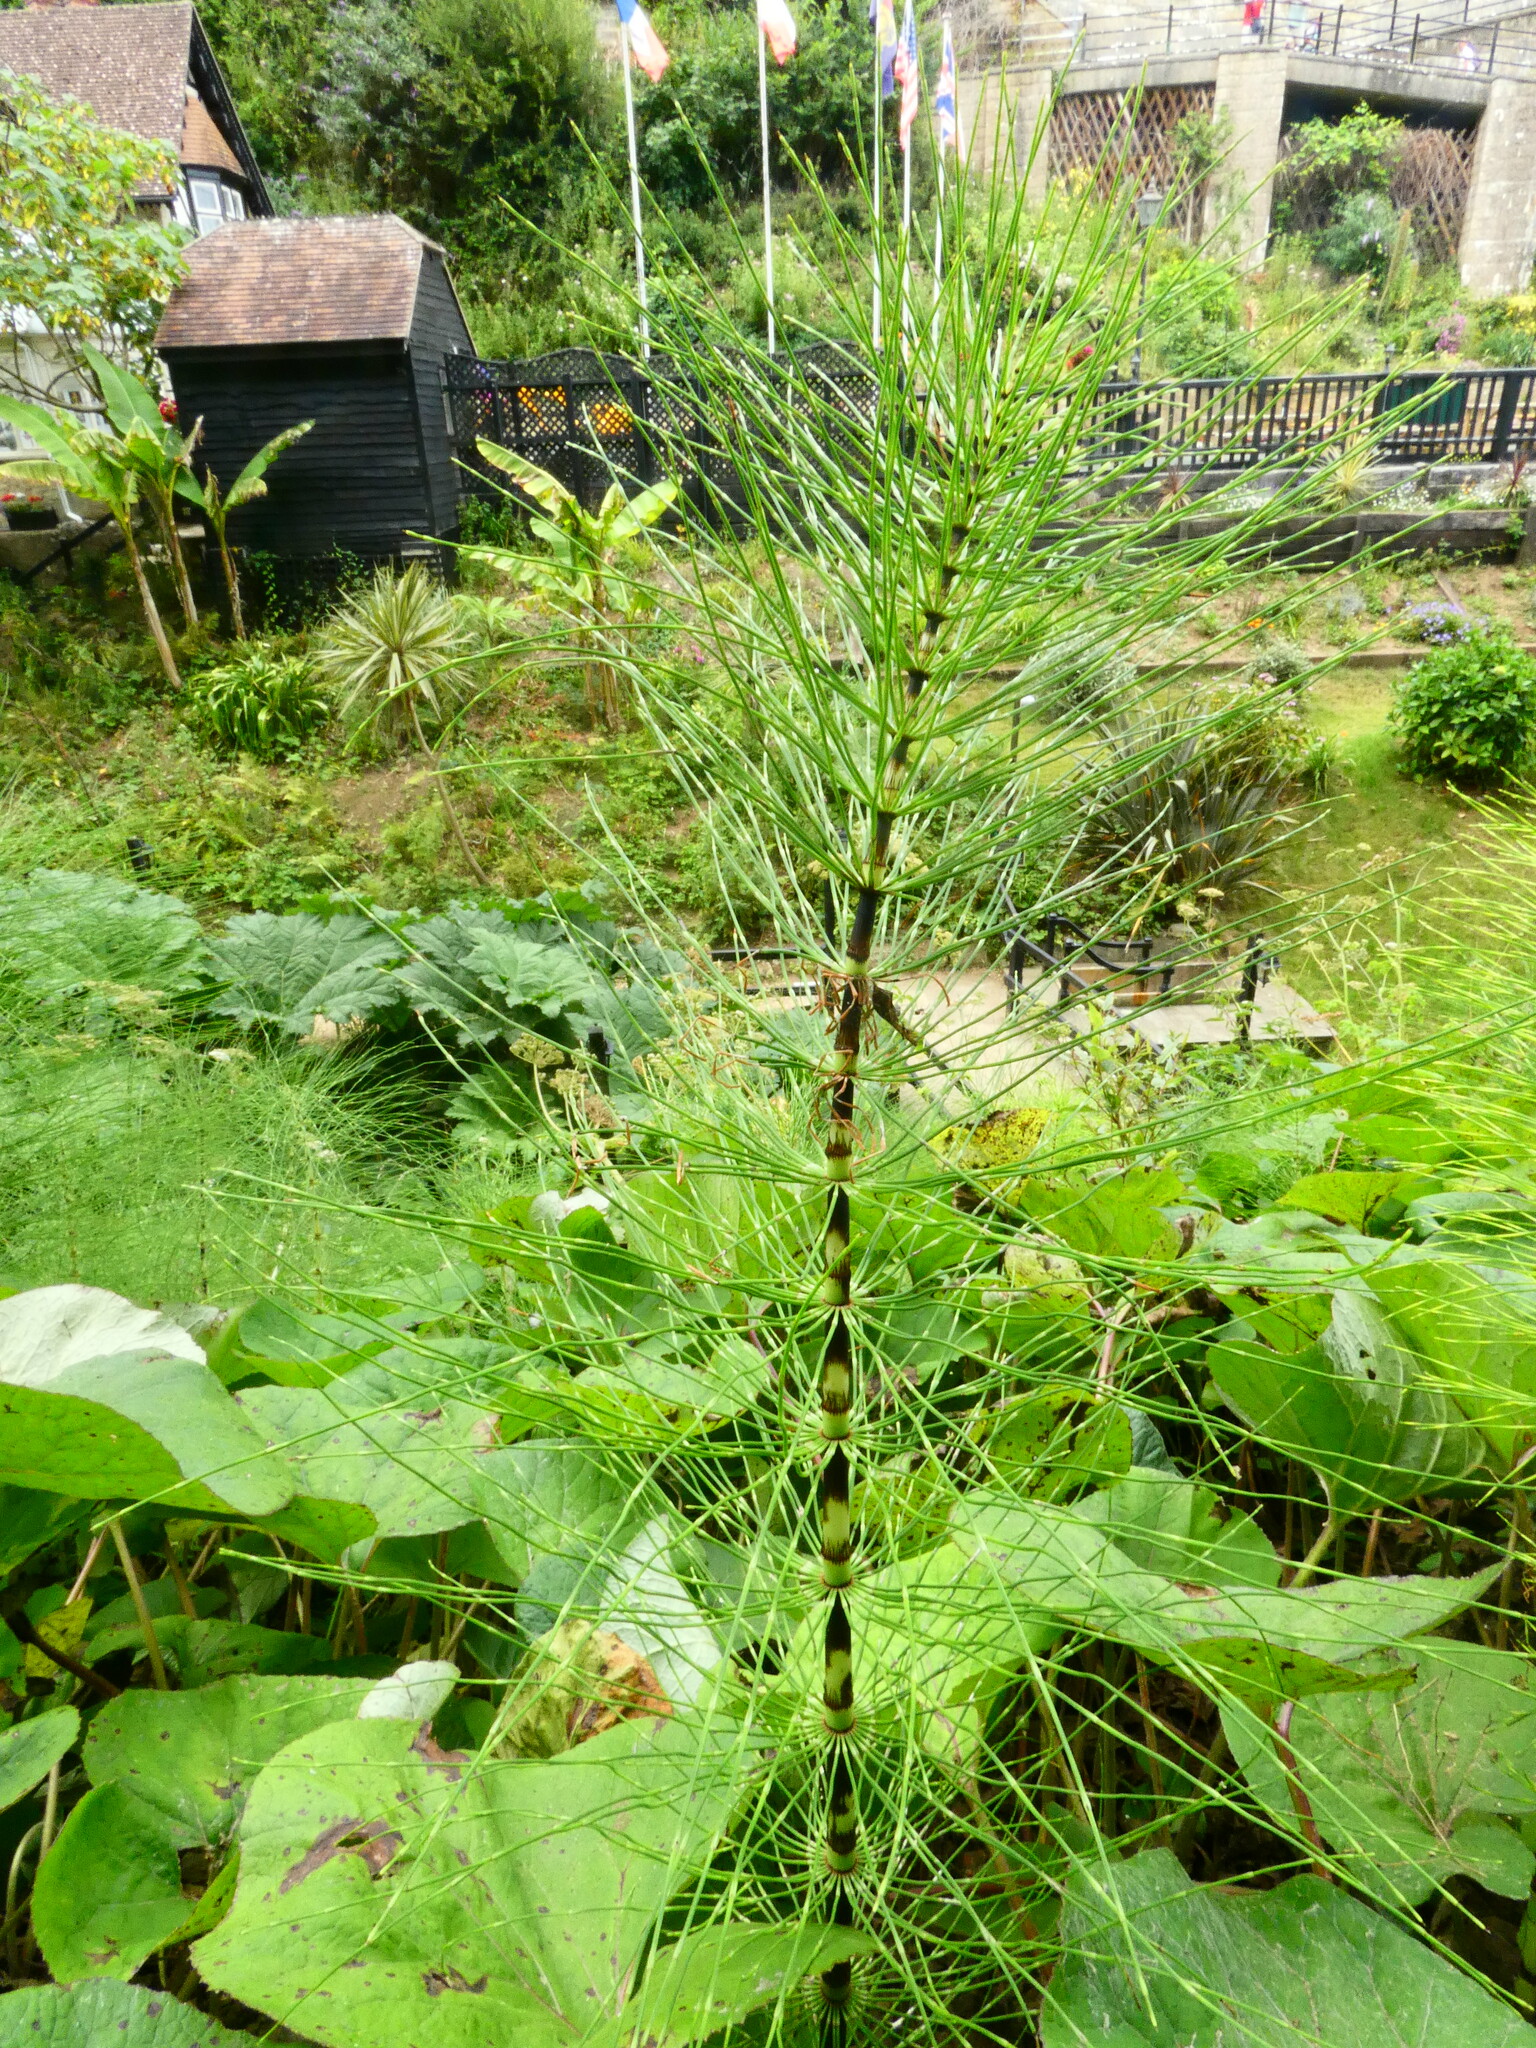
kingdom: Plantae
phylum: Tracheophyta
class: Polypodiopsida
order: Equisetales
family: Equisetaceae
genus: Equisetum
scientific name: Equisetum telmateia
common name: Great horsetail
